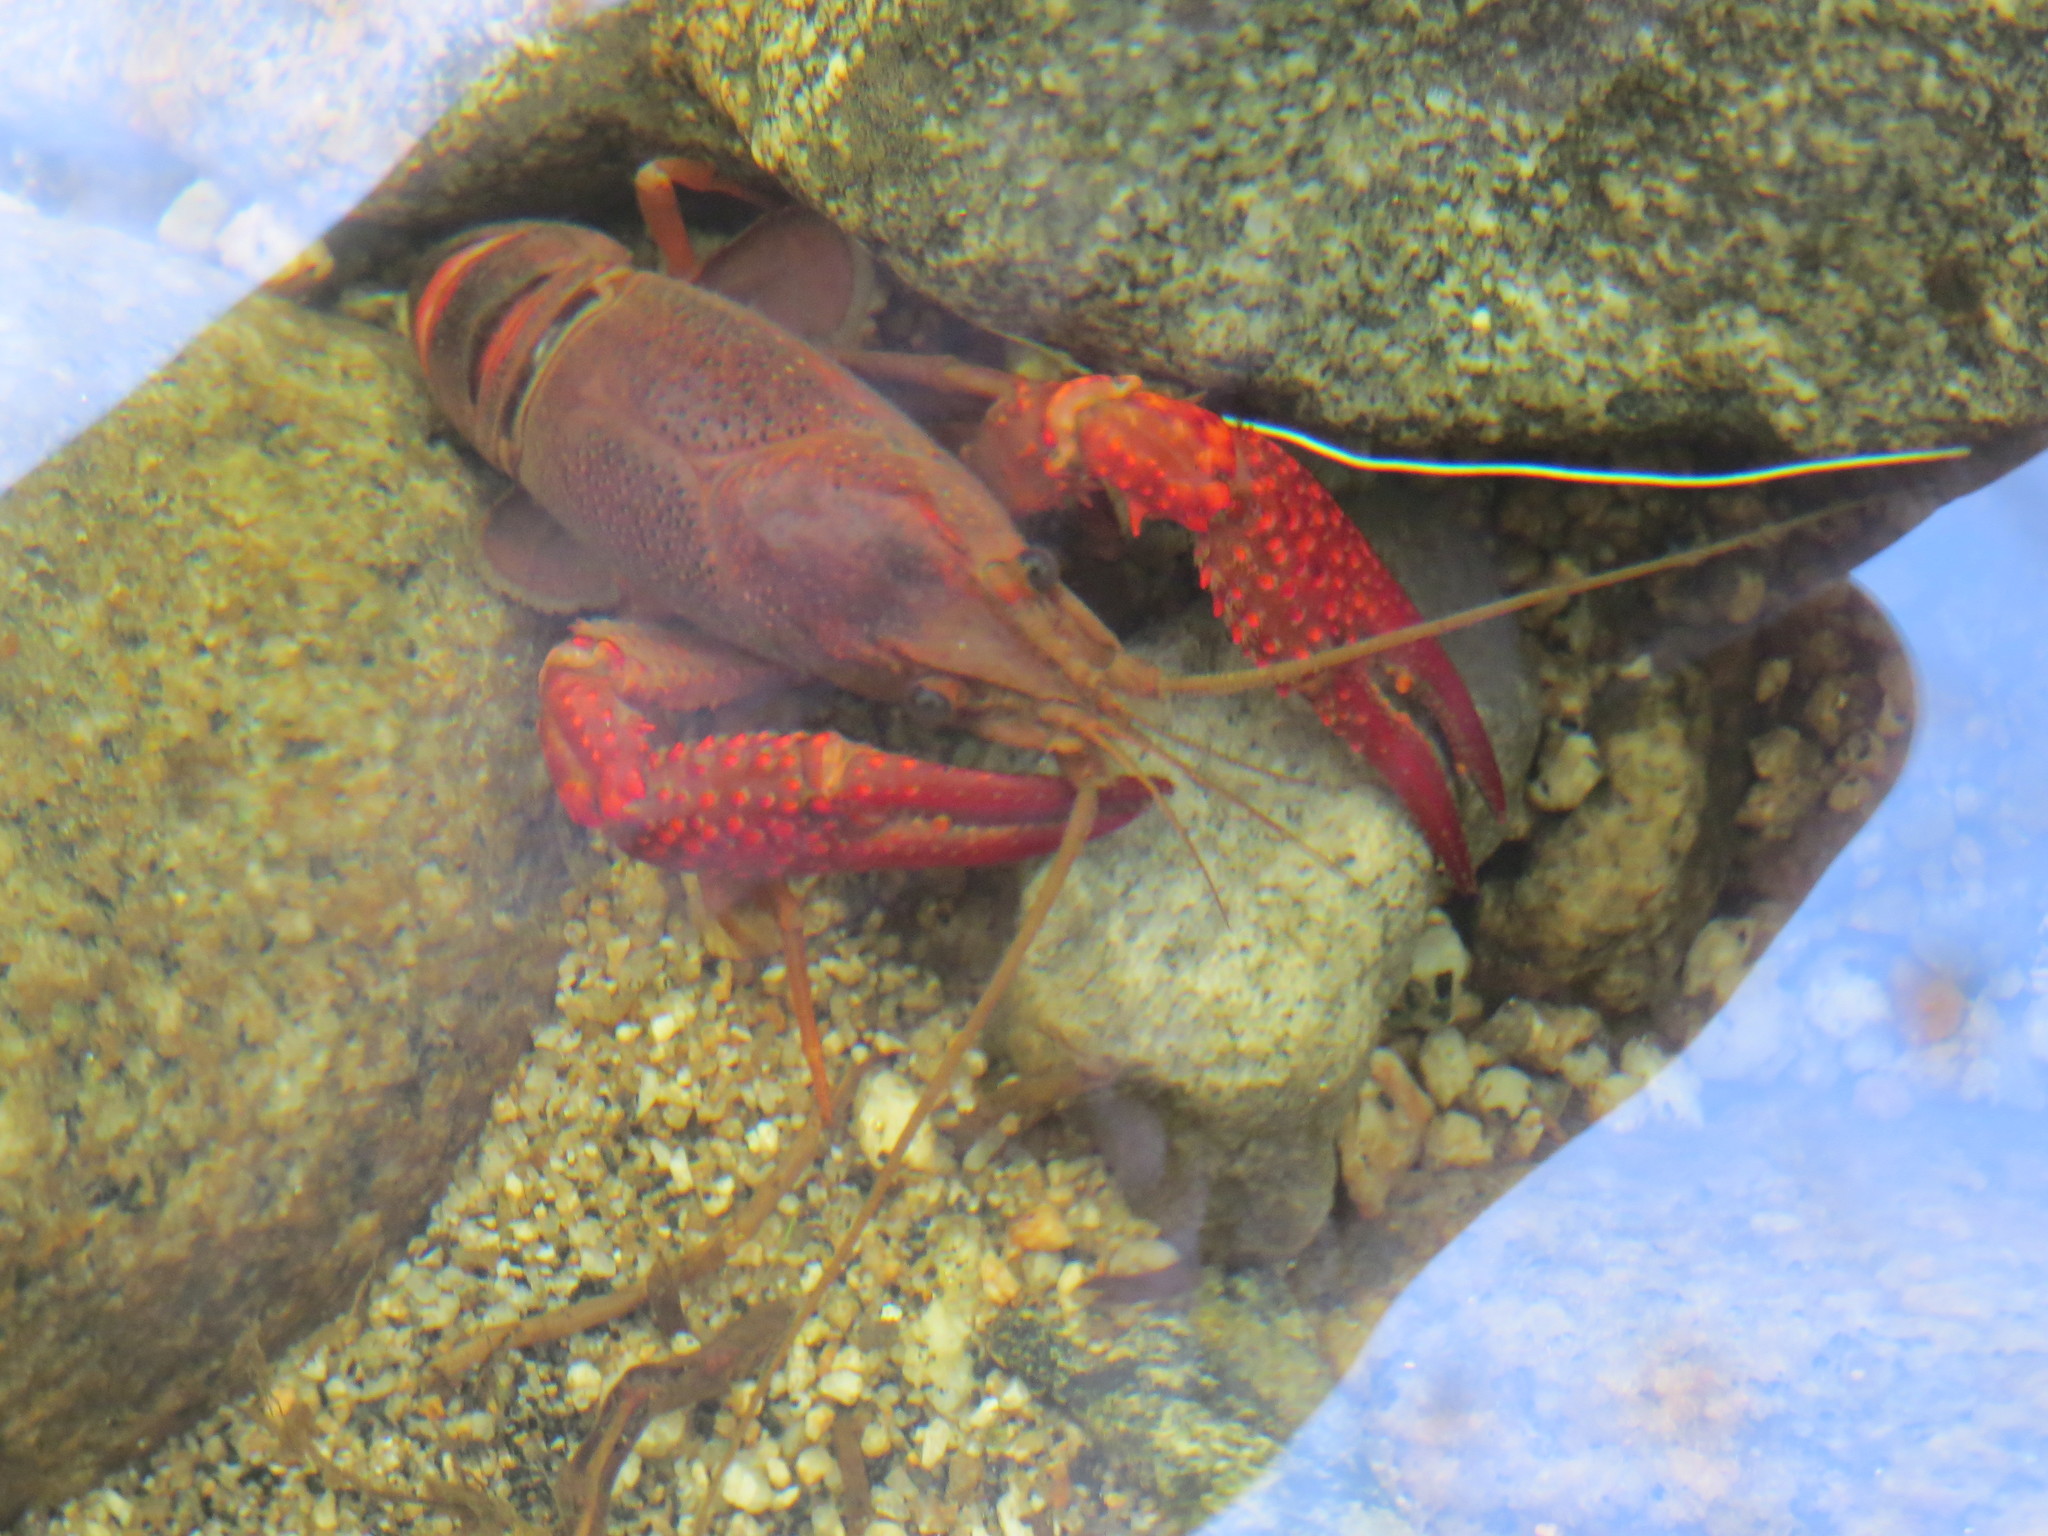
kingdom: Animalia
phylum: Arthropoda
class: Malacostraca
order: Decapoda
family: Cambaridae
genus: Procambarus
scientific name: Procambarus clarkii
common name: Red swamp crayfish
